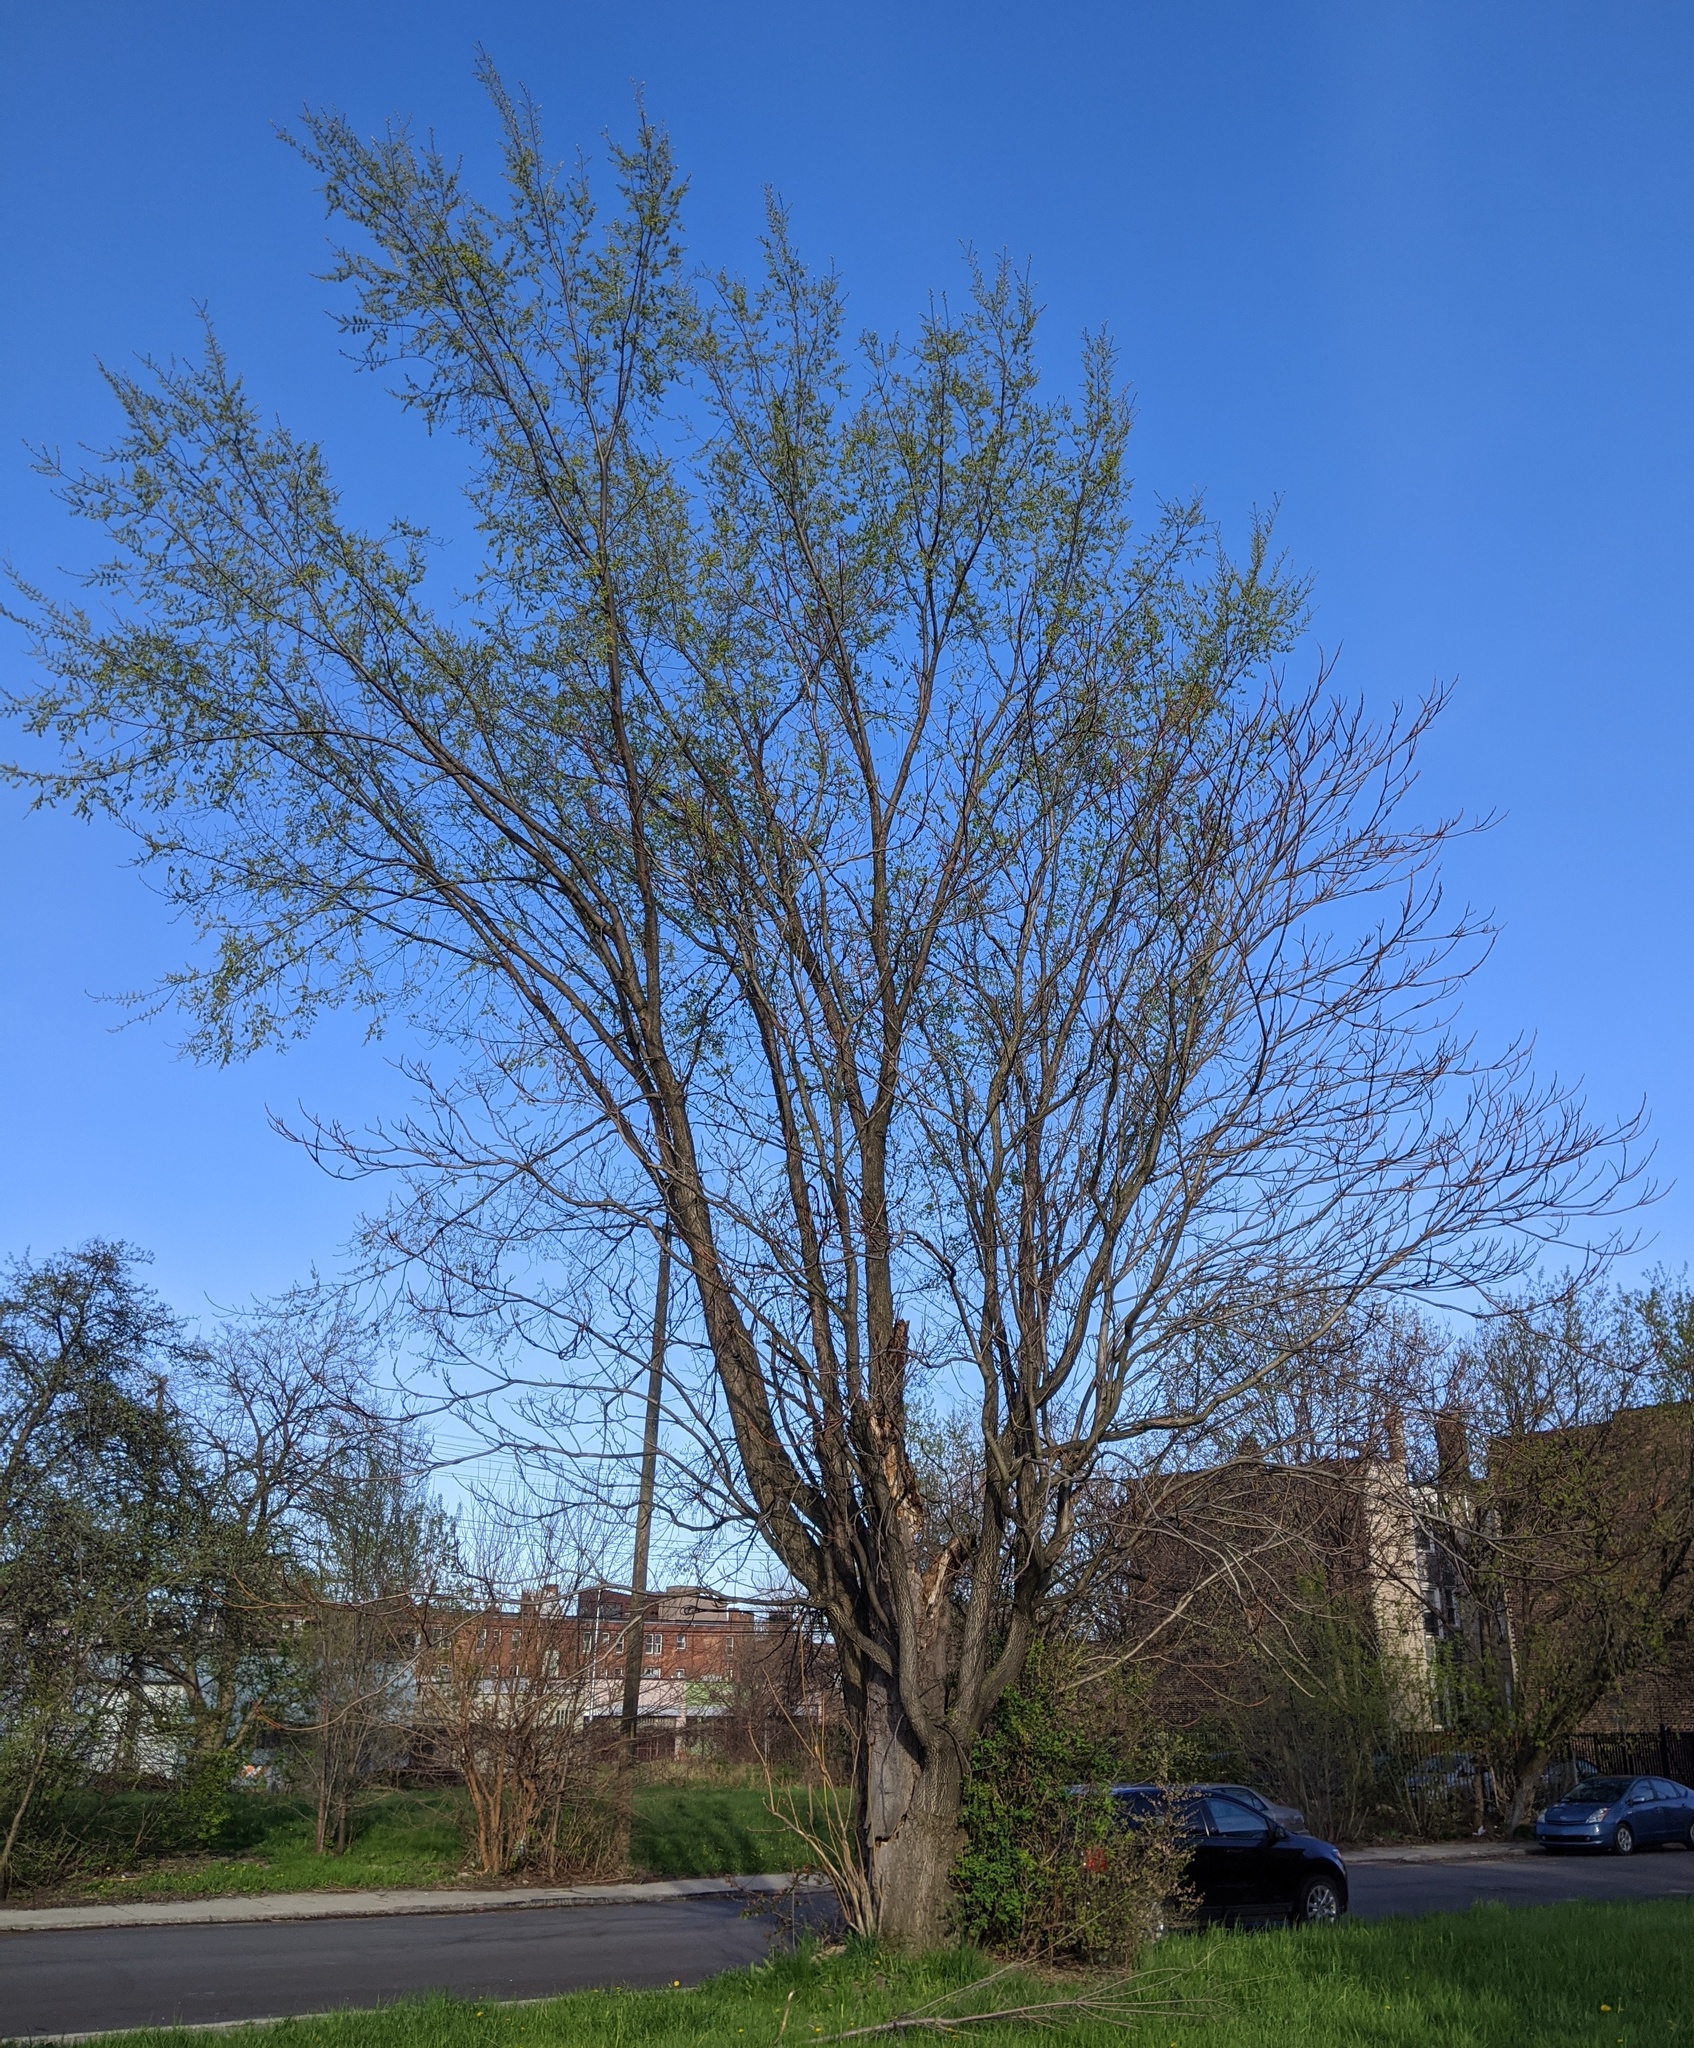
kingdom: Plantae
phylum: Tracheophyta
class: Magnoliopsida
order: Sapindales
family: Simaroubaceae
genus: Ailanthus
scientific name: Ailanthus altissima
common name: Tree-of-heaven
